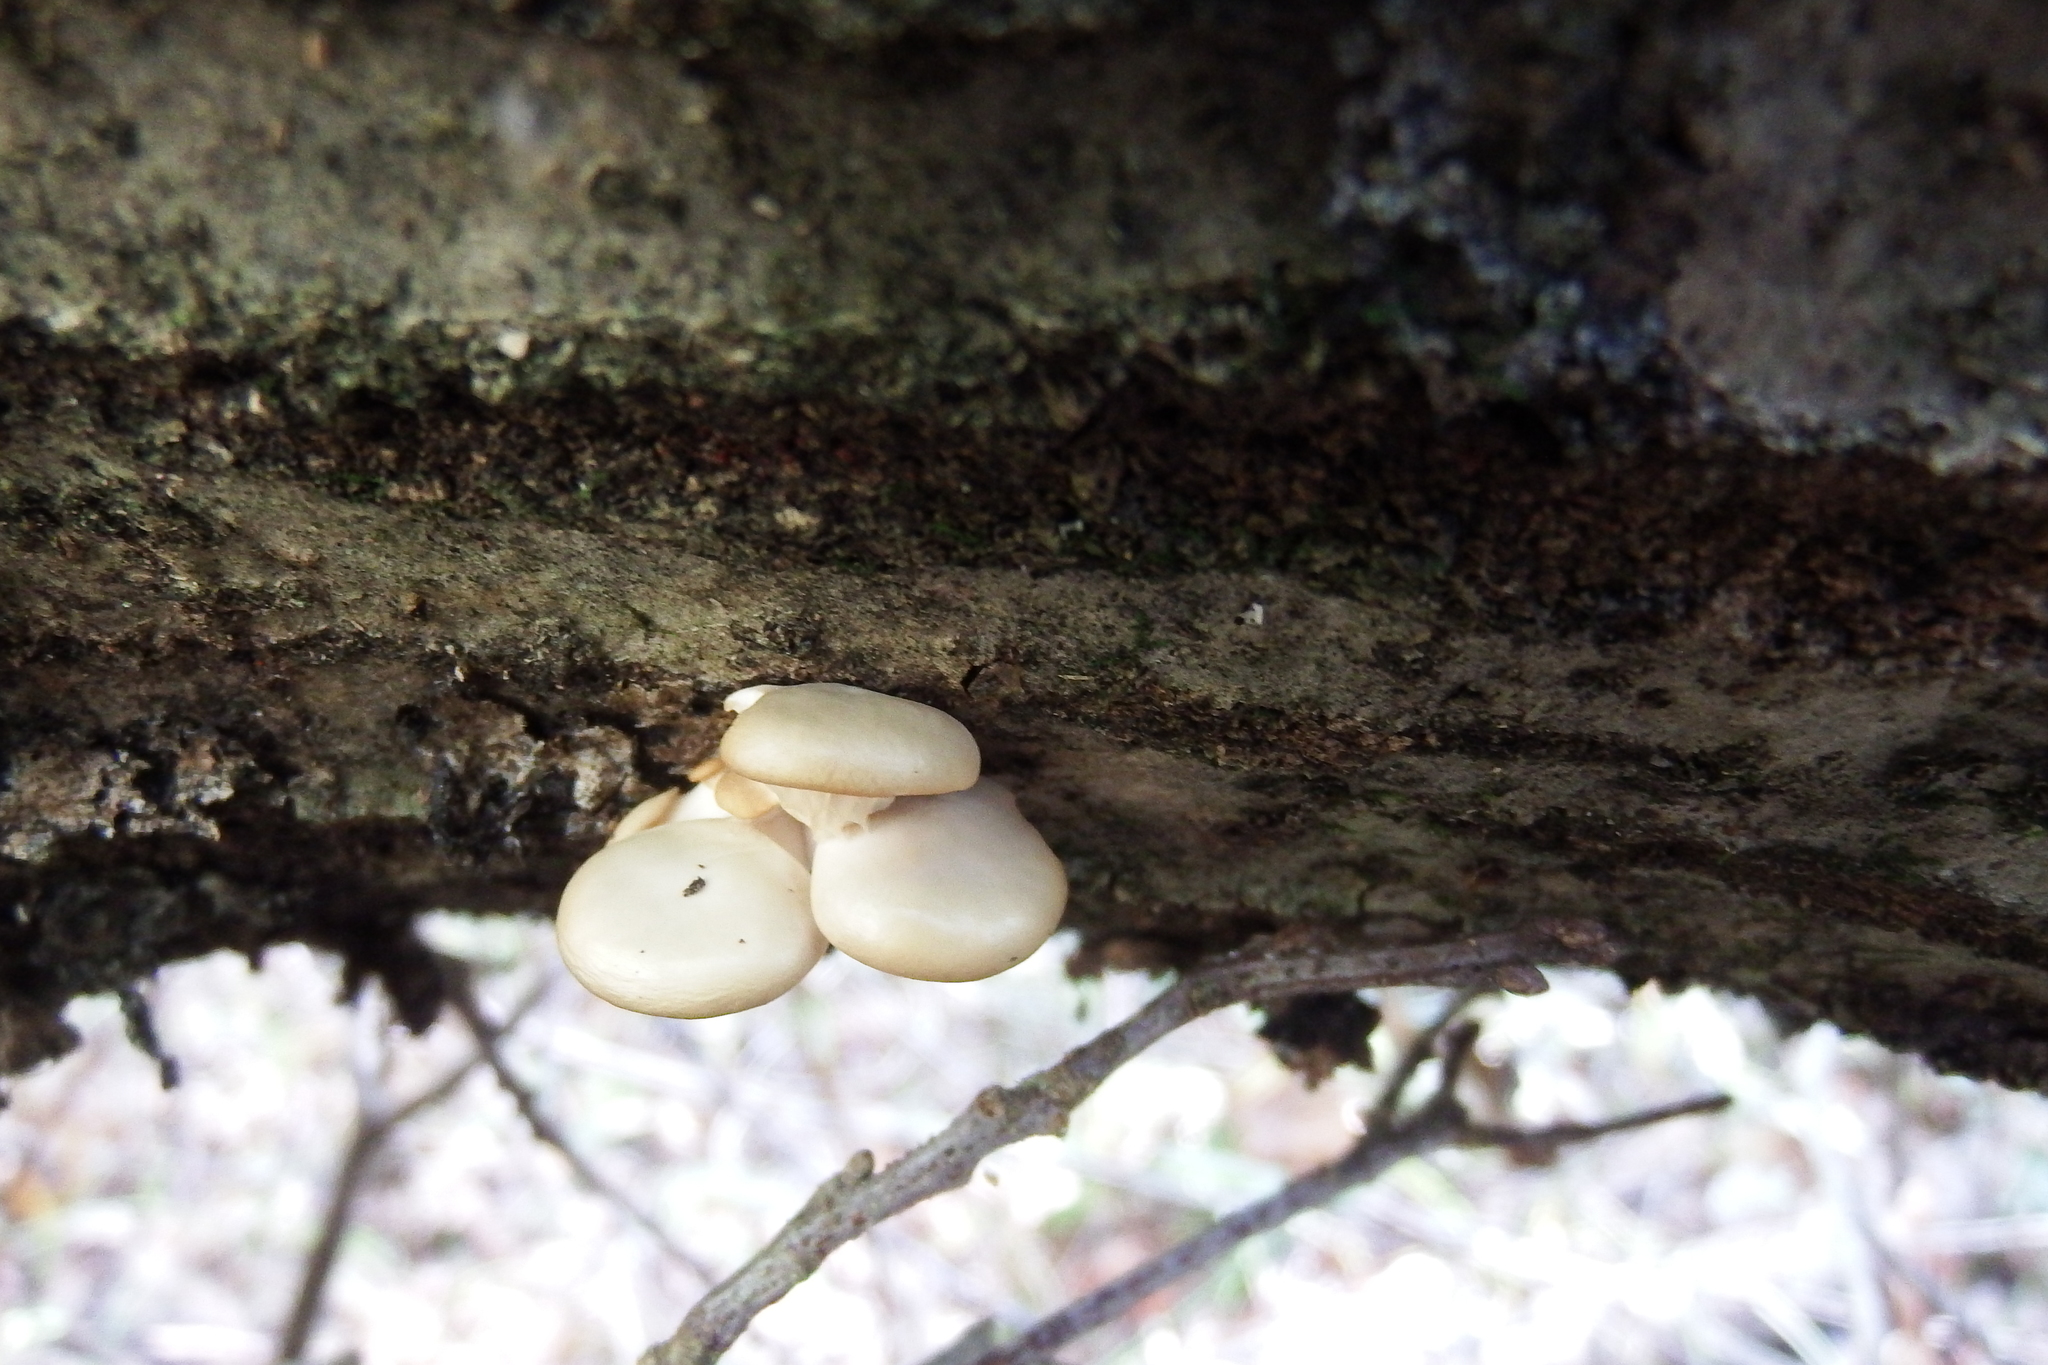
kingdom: Fungi
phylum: Basidiomycota
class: Agaricomycetes
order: Agaricales
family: Pleurotaceae
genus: Pleurotus
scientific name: Pleurotus ostreatus
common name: Oyster mushroom
